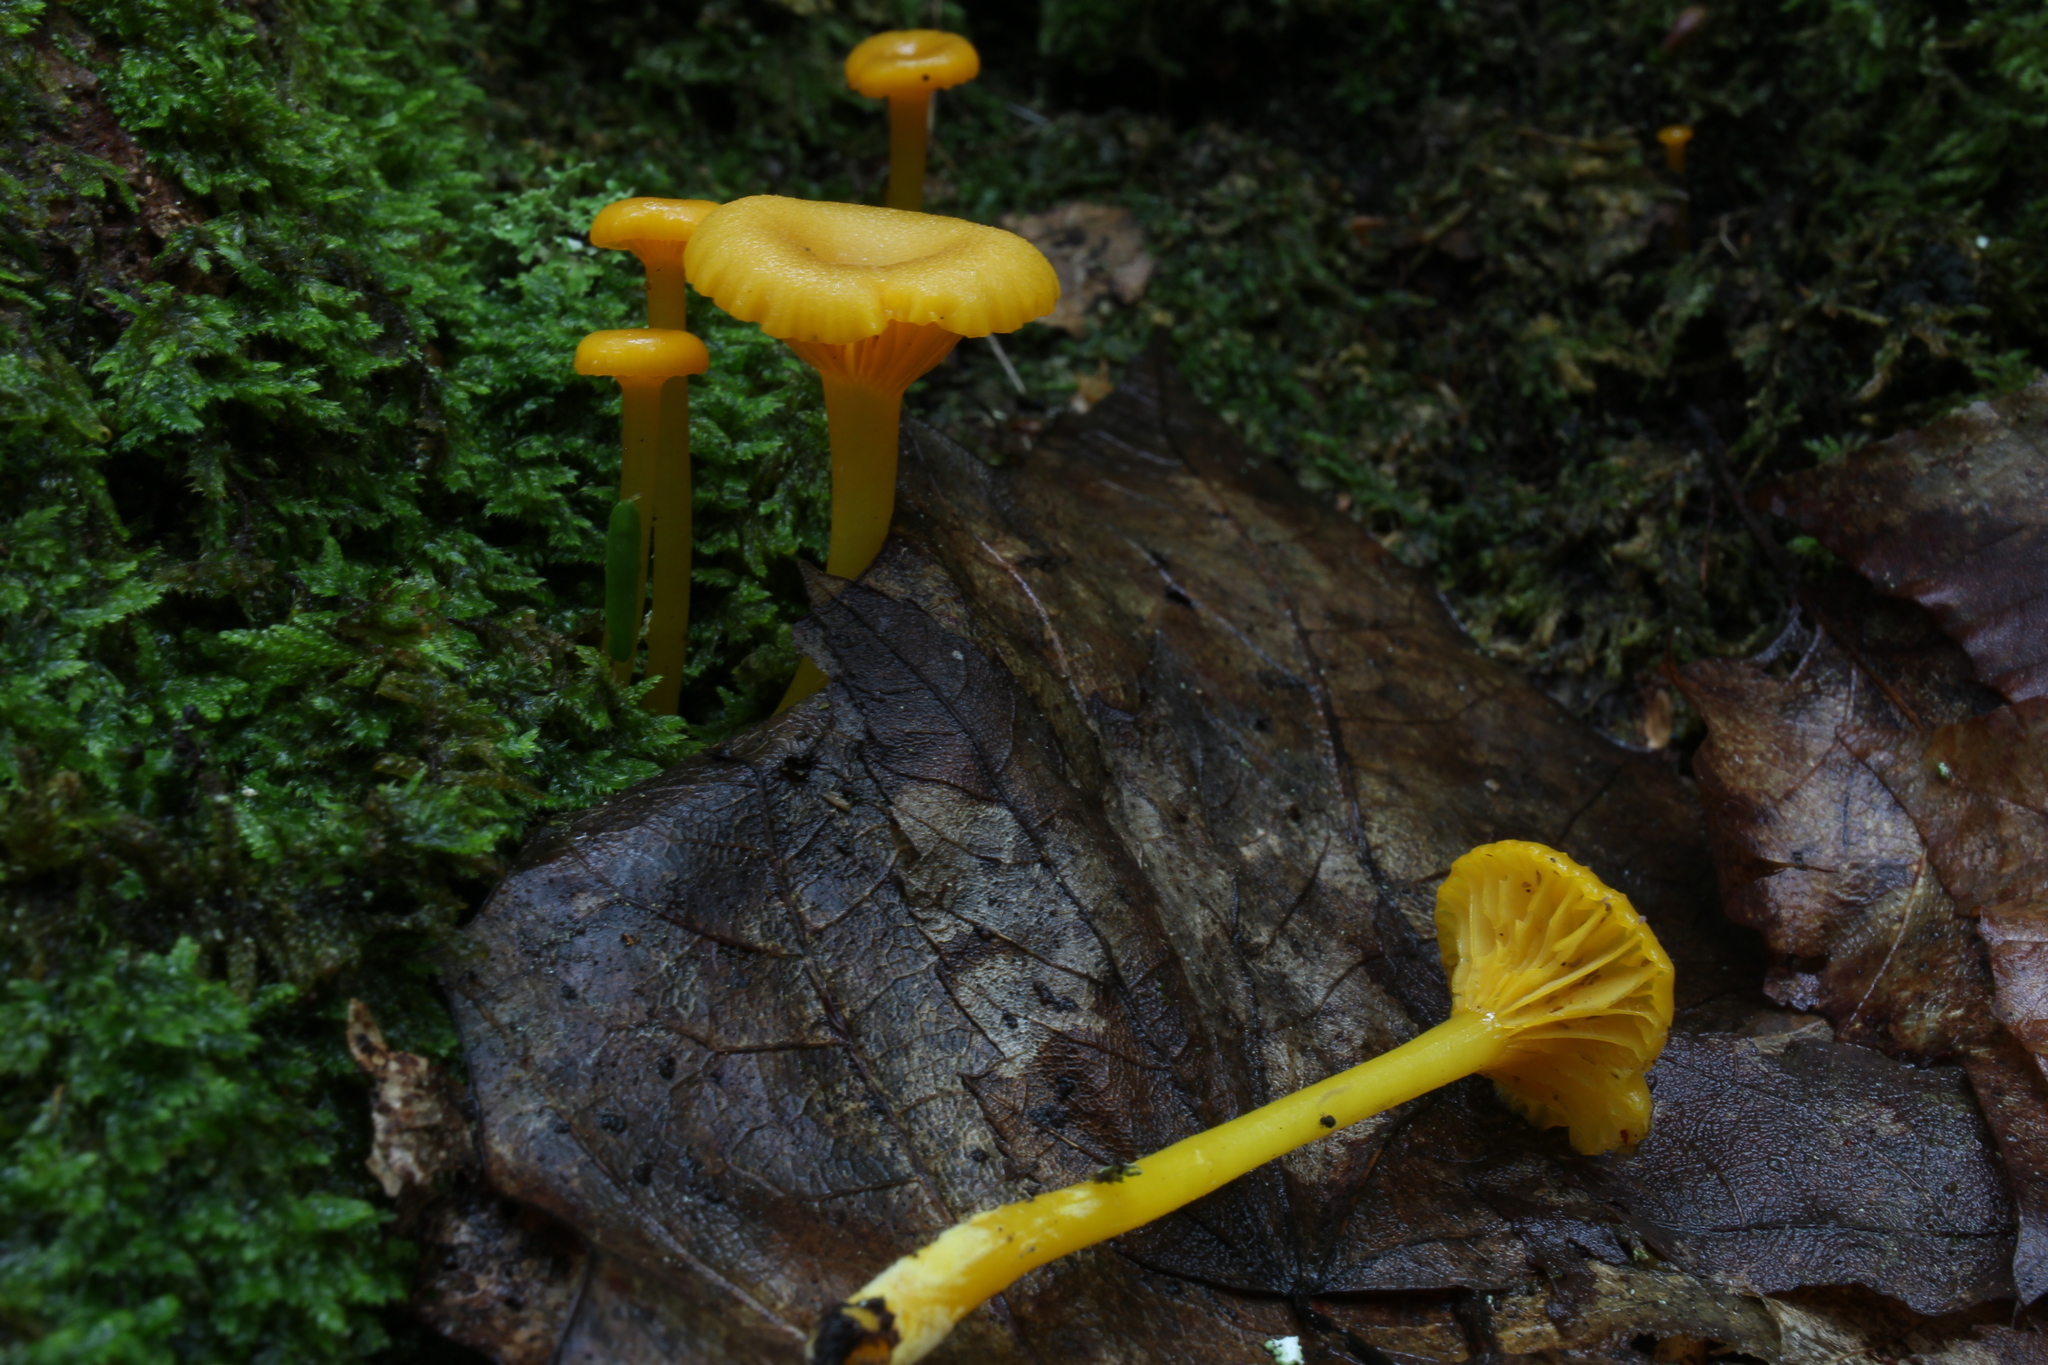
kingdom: Fungi
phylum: Basidiomycota
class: Agaricomycetes
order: Agaricales
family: Hygrophoraceae
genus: Gloioxanthomyces
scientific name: Gloioxanthomyces nitidus
